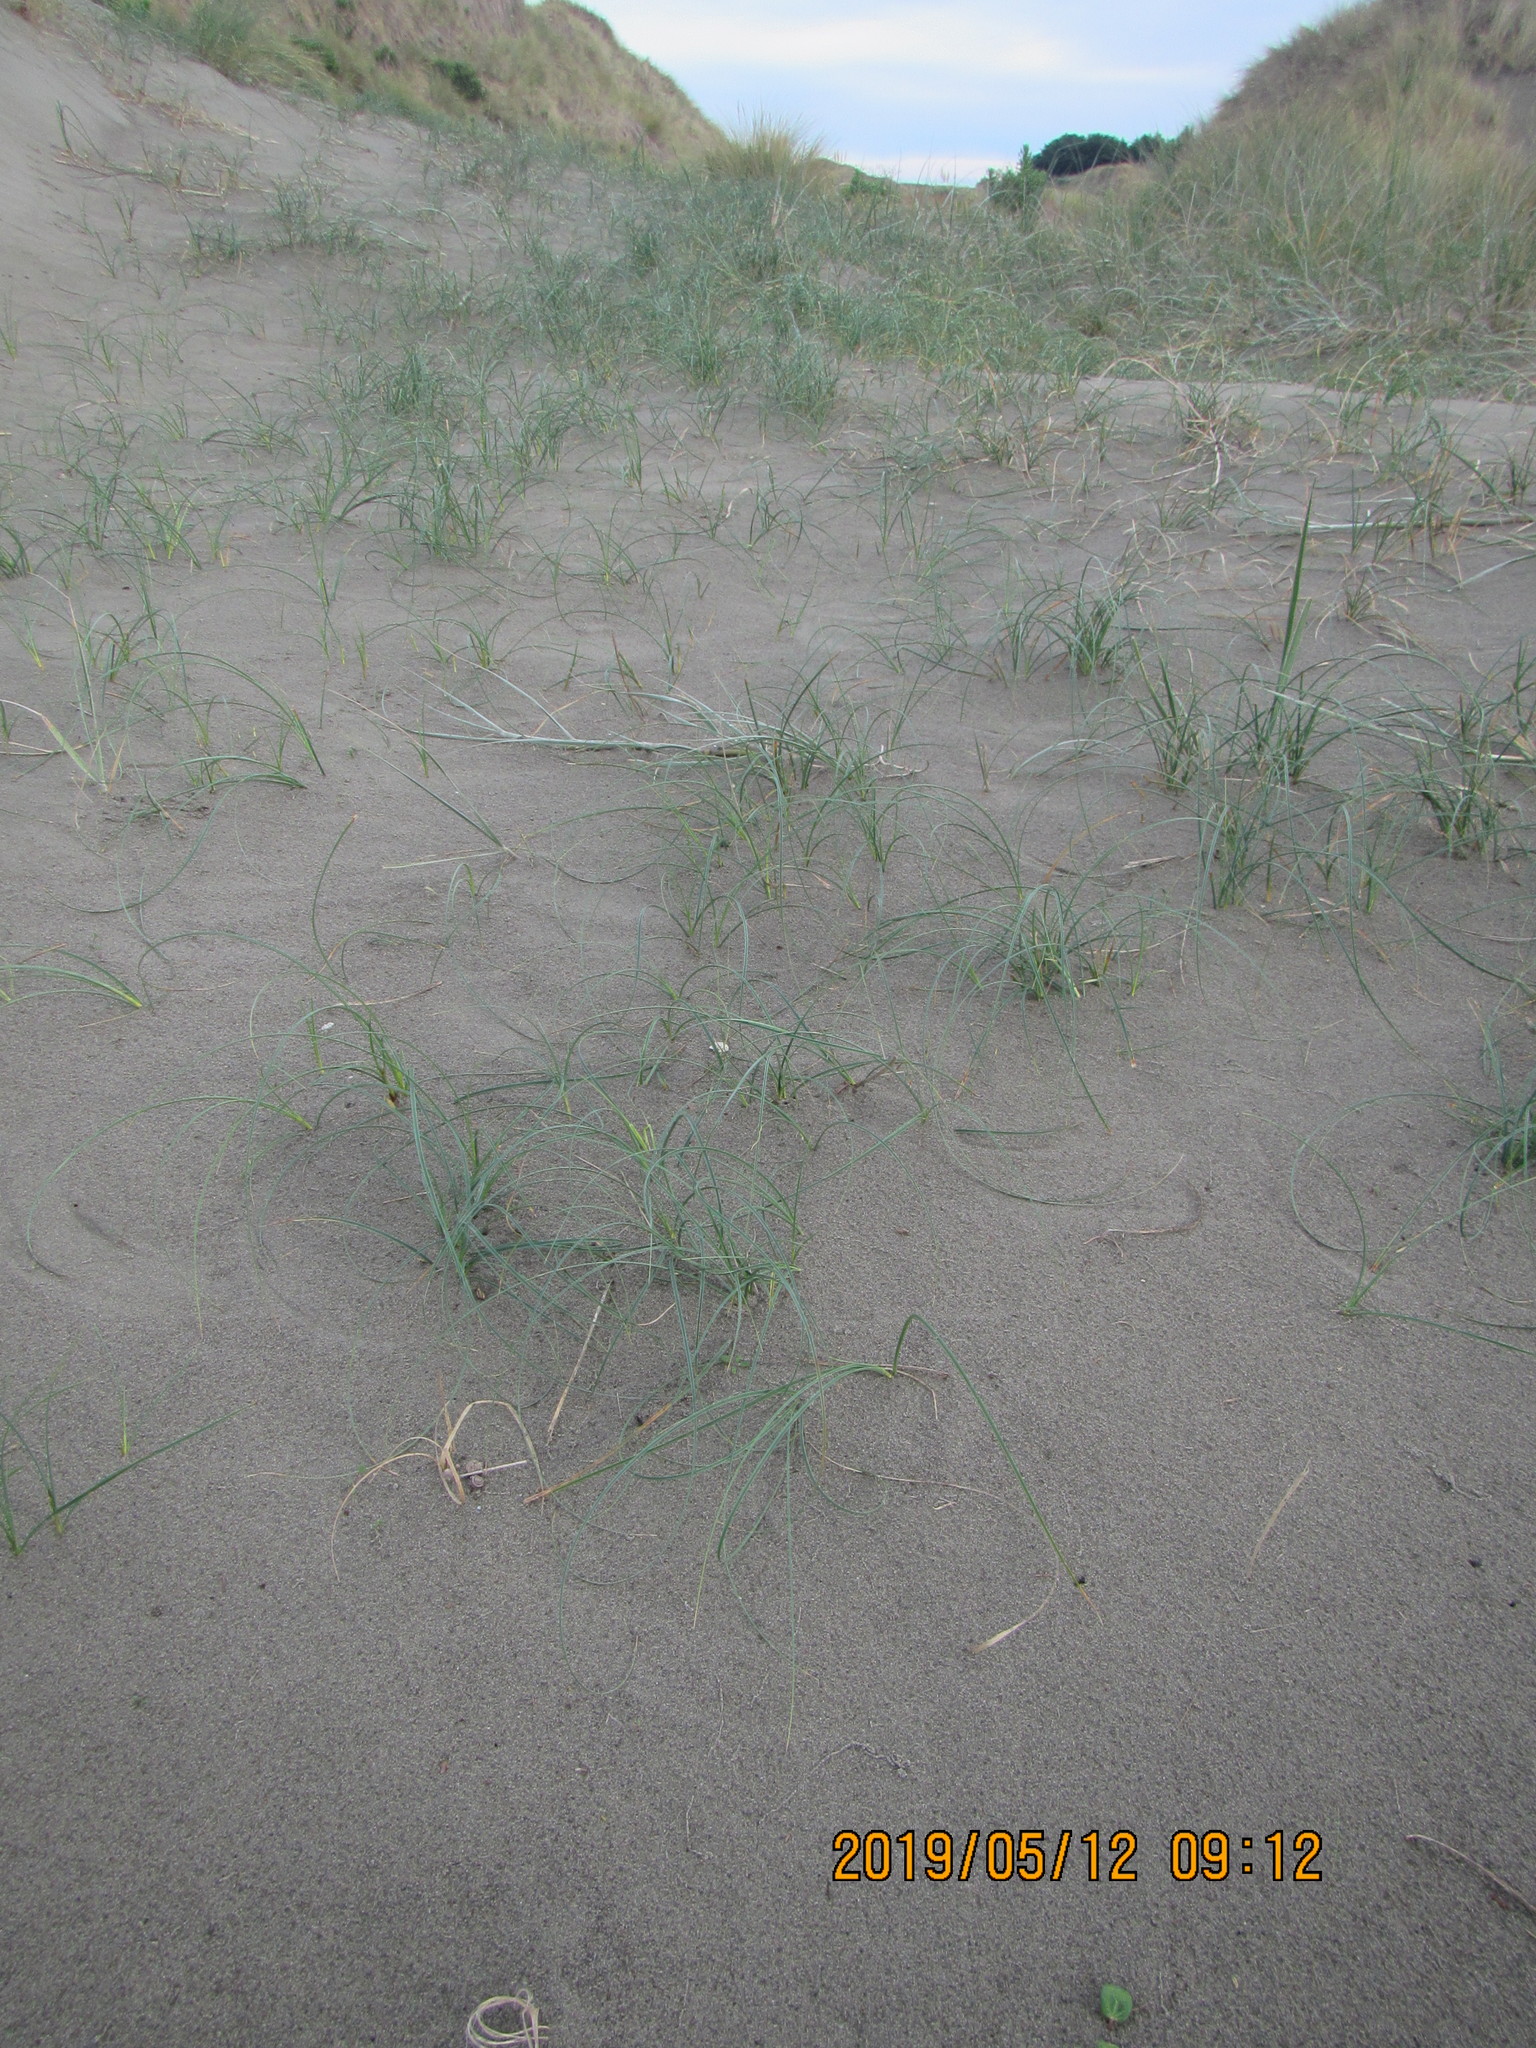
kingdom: Plantae
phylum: Tracheophyta
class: Liliopsida
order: Poales
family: Cyperaceae
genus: Carex
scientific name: Carex pumila
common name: Dwarf sedge
